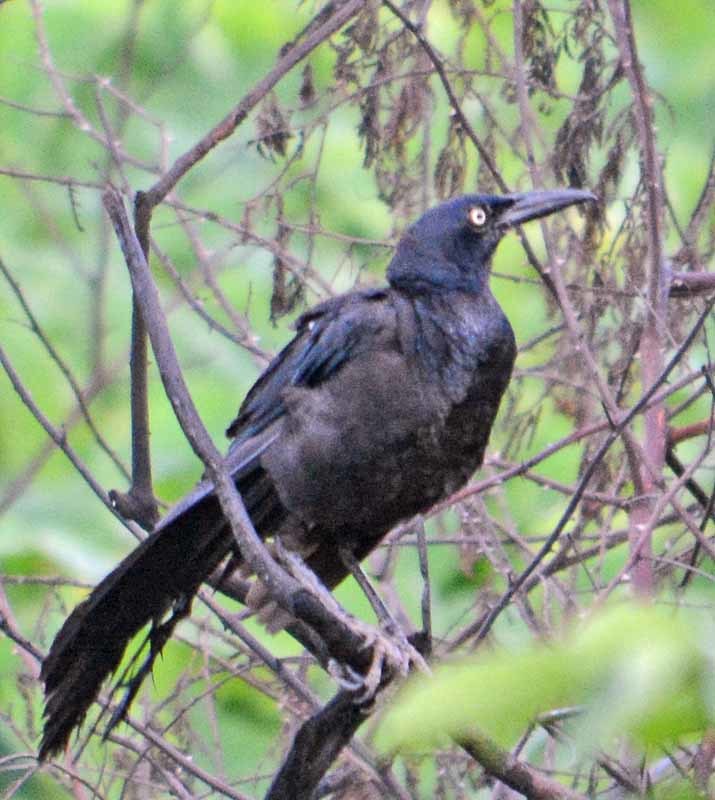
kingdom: Animalia
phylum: Chordata
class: Aves
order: Passeriformes
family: Icteridae
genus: Quiscalus
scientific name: Quiscalus mexicanus
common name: Great-tailed grackle
